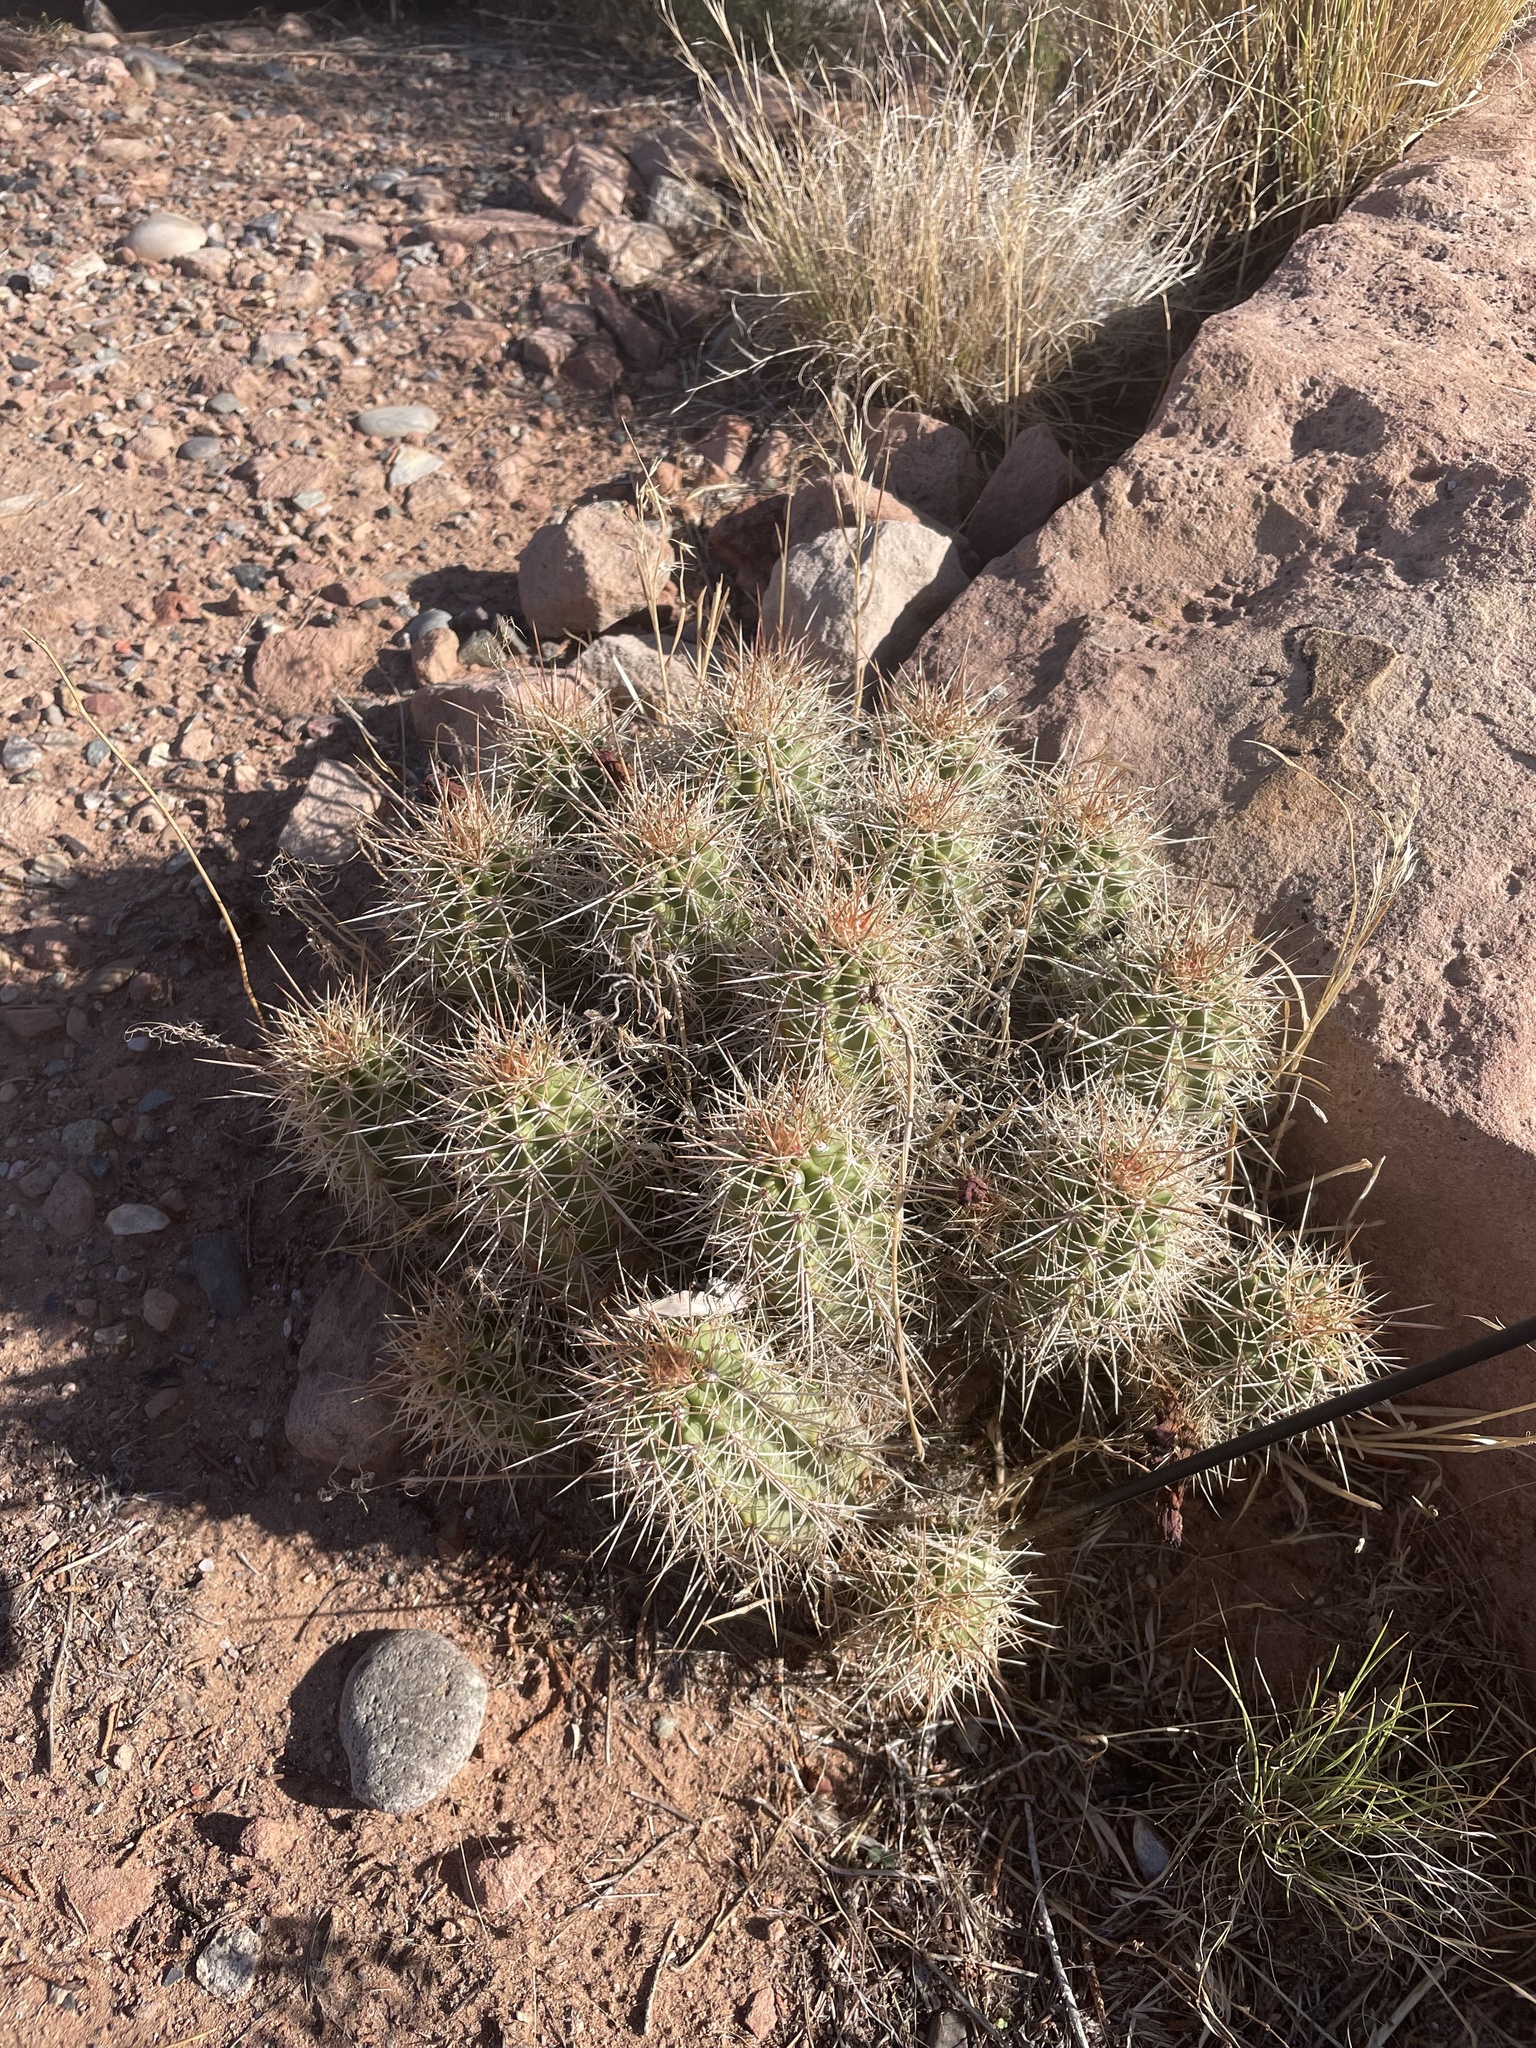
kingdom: Plantae
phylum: Tracheophyta
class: Magnoliopsida
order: Caryophyllales
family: Cactaceae
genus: Echinocereus
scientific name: Echinocereus triglochidiatus
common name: Claretcup hedgehog
